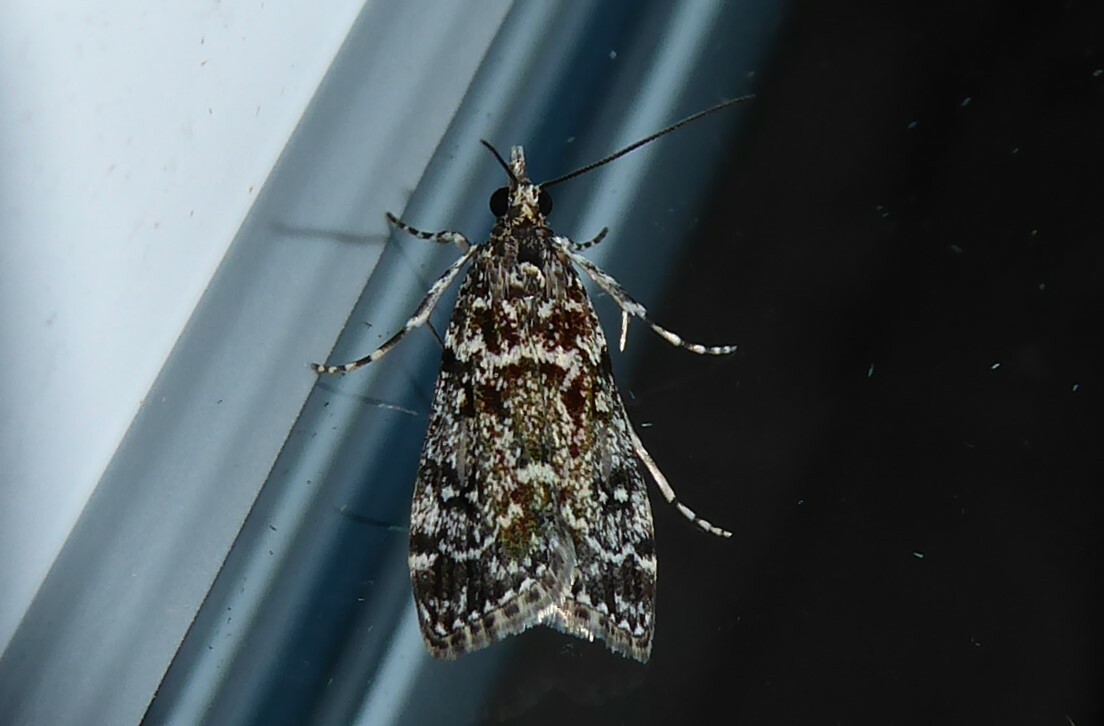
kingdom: Animalia
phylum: Arthropoda
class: Insecta
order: Lepidoptera
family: Crambidae
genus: Eudonia
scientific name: Eudonia philerga
